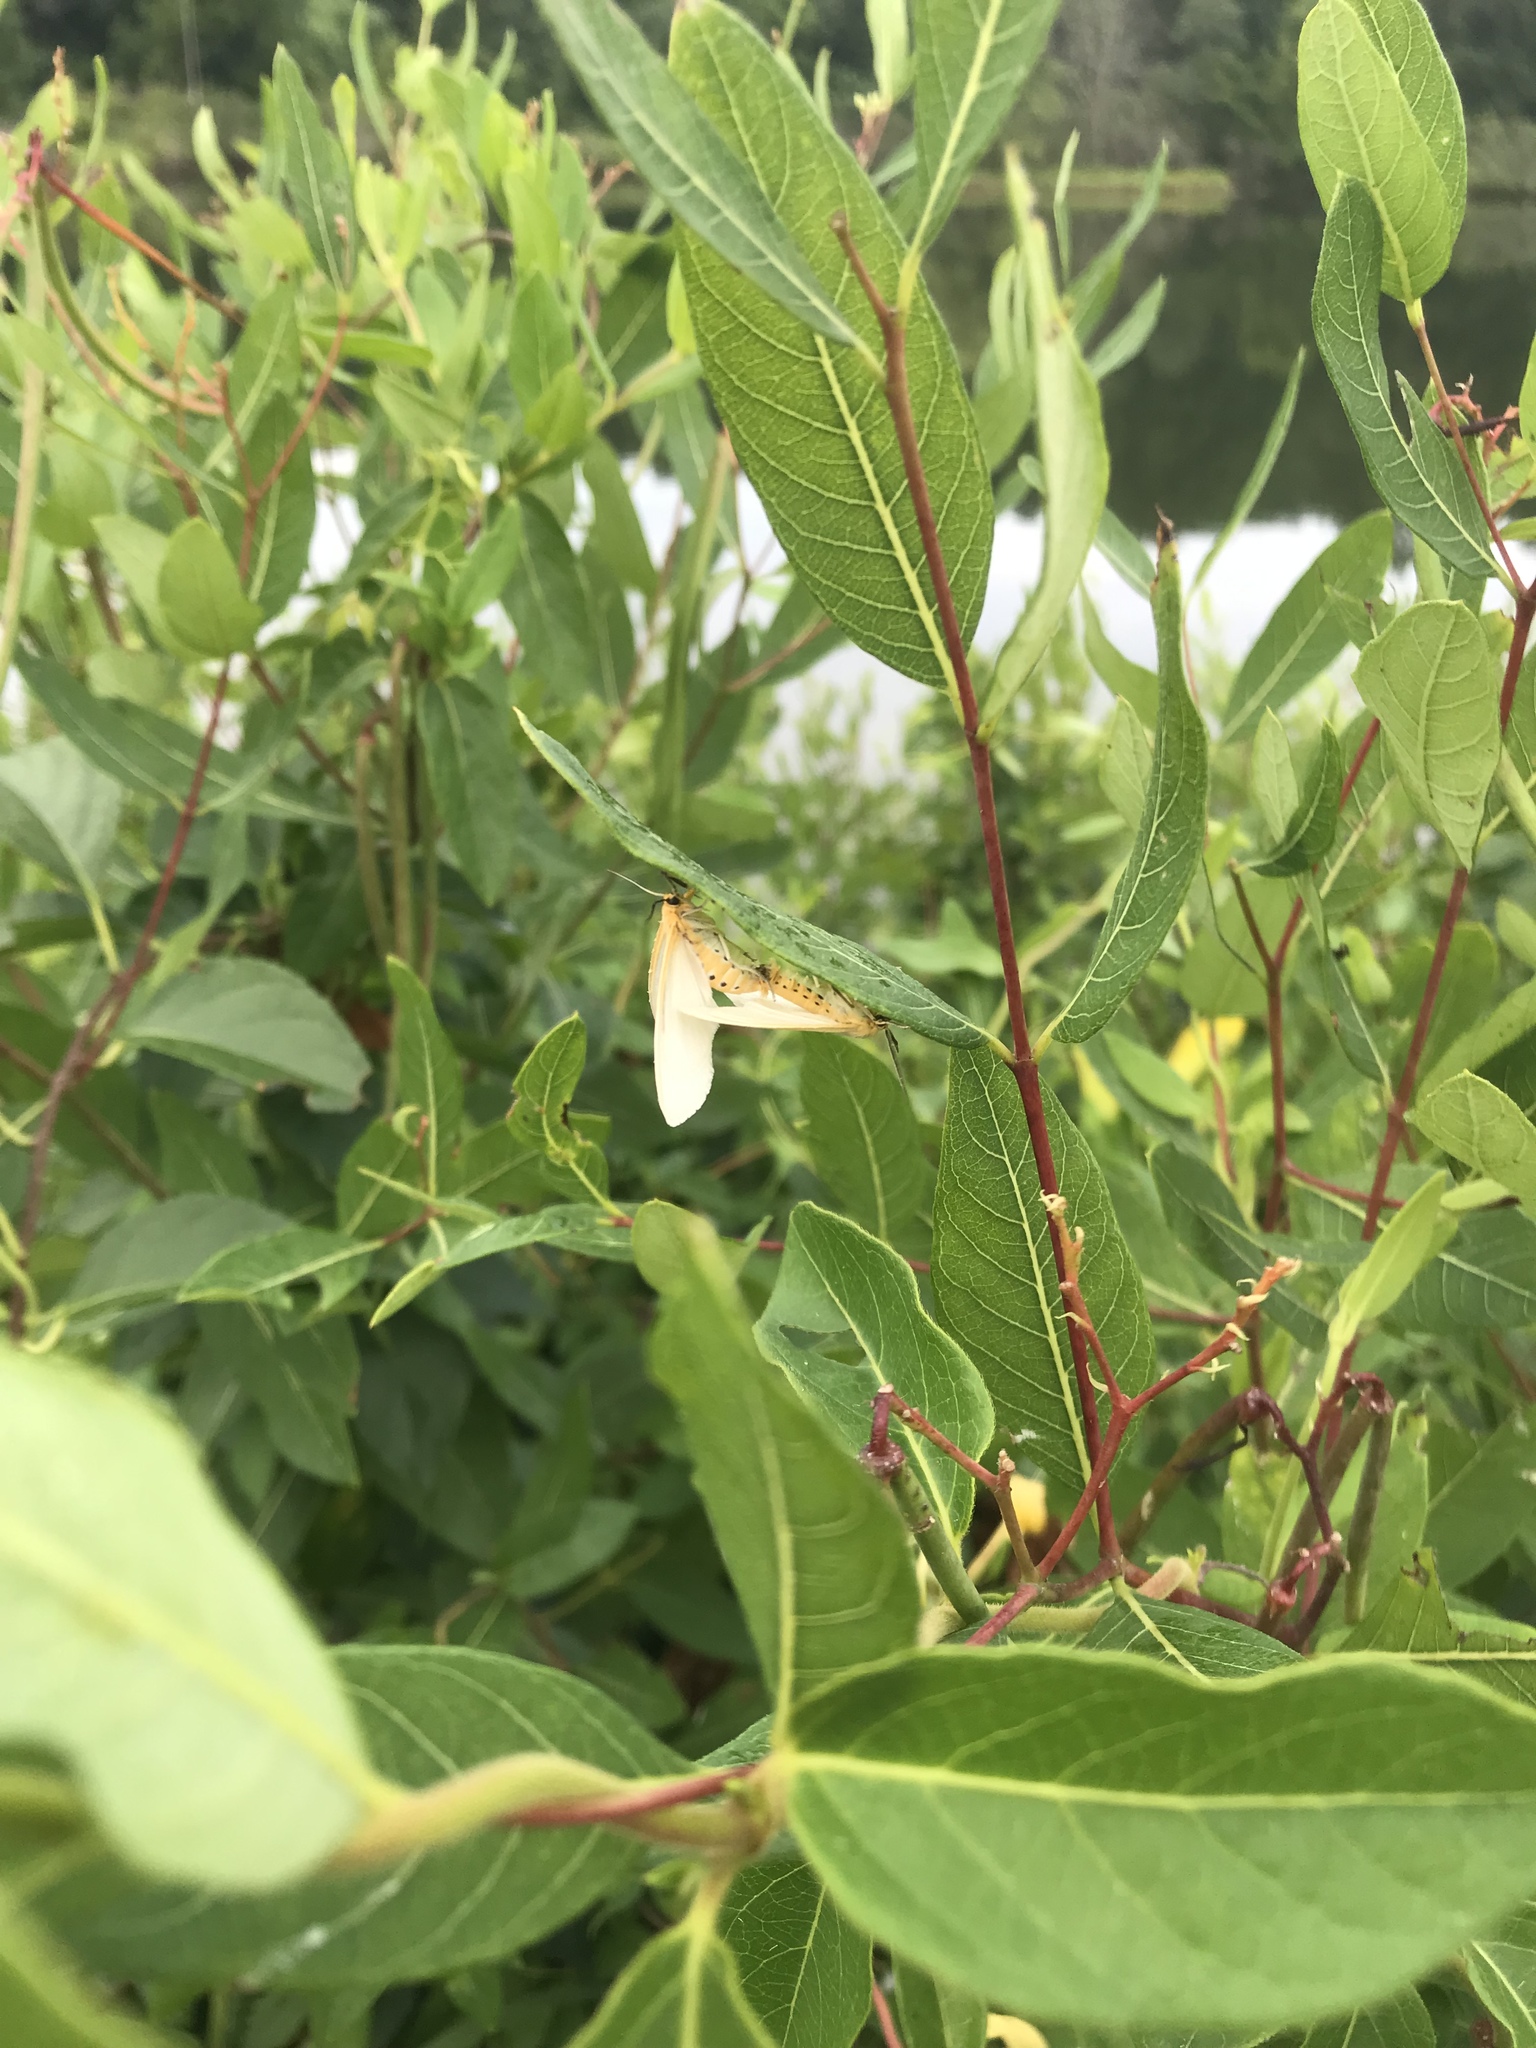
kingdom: Animalia
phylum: Arthropoda
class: Insecta
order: Lepidoptera
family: Erebidae
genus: Cycnia
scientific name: Cycnia tenera
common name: Delicate cycnia moth
